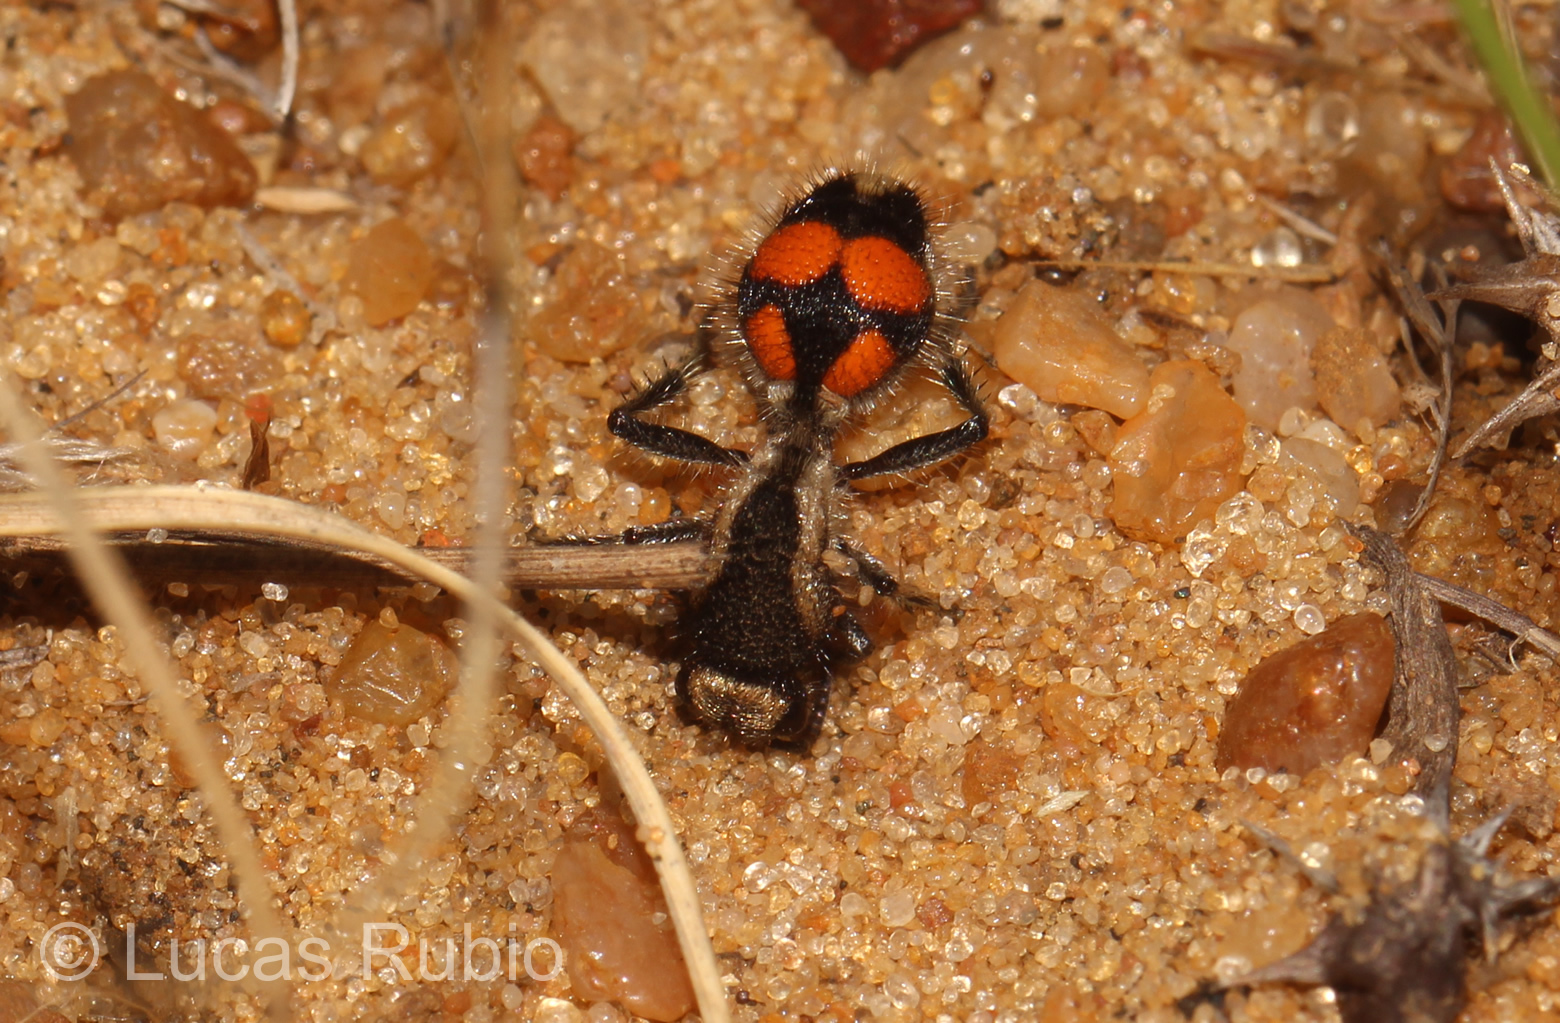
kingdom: Animalia
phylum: Arthropoda
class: Insecta
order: Hymenoptera
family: Mutillidae
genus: Traumatomutilla
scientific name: Traumatomutilla ocellaris
